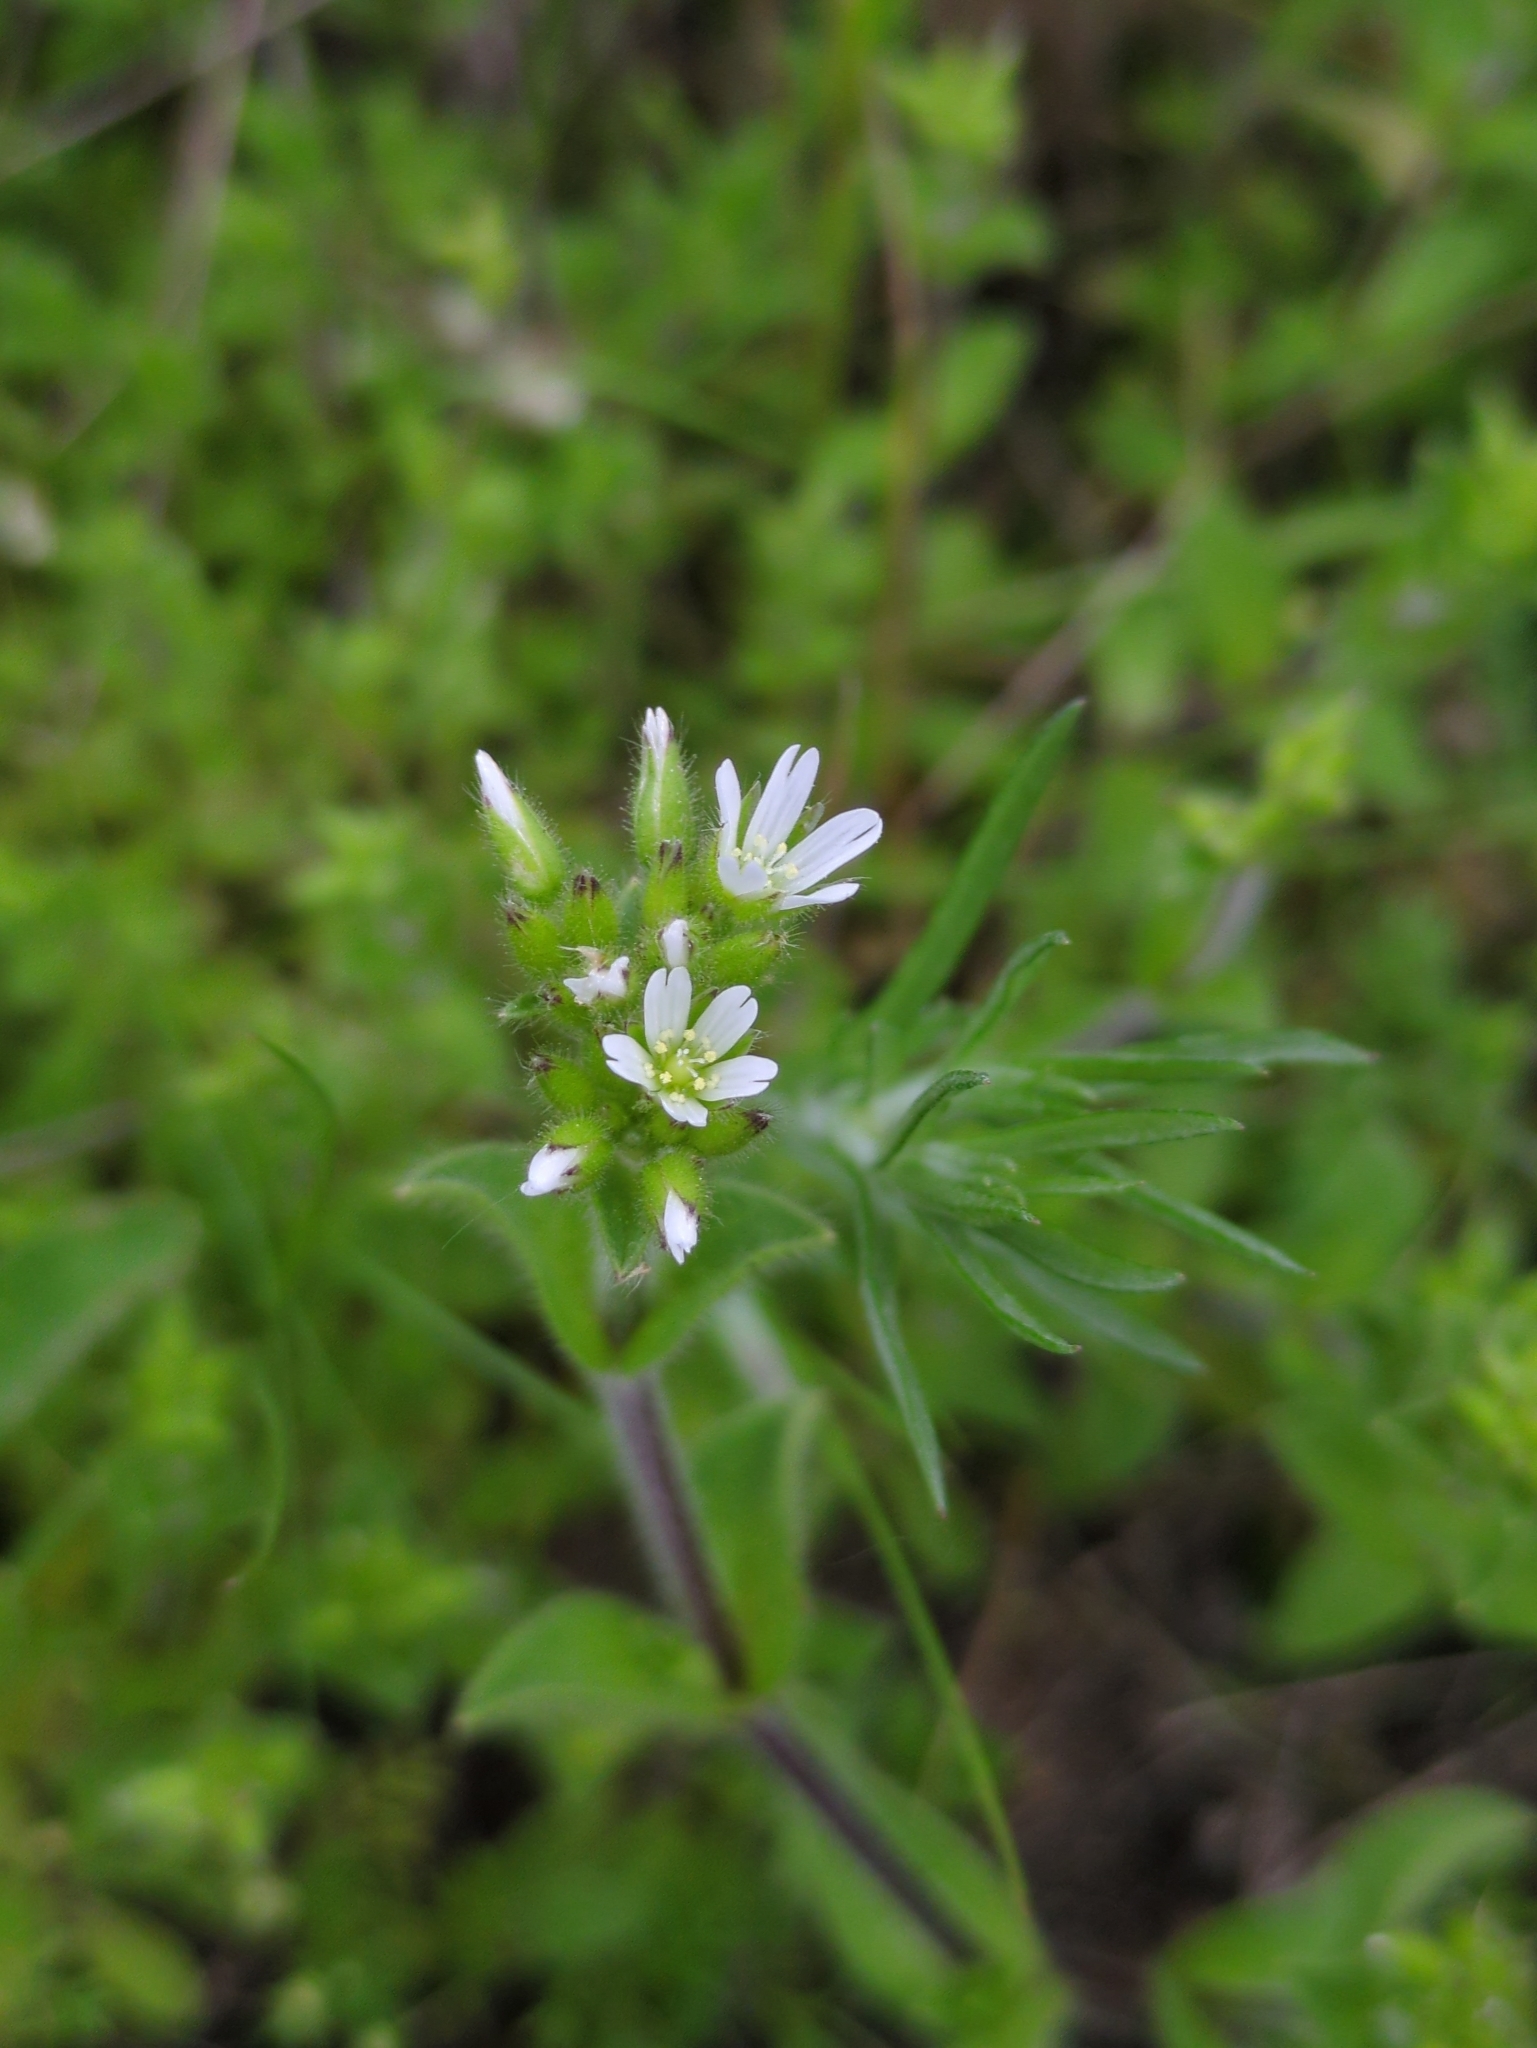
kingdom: Plantae
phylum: Tracheophyta
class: Magnoliopsida
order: Caryophyllales
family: Caryophyllaceae
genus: Cerastium
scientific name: Cerastium glomeratum
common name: Sticky chickweed
